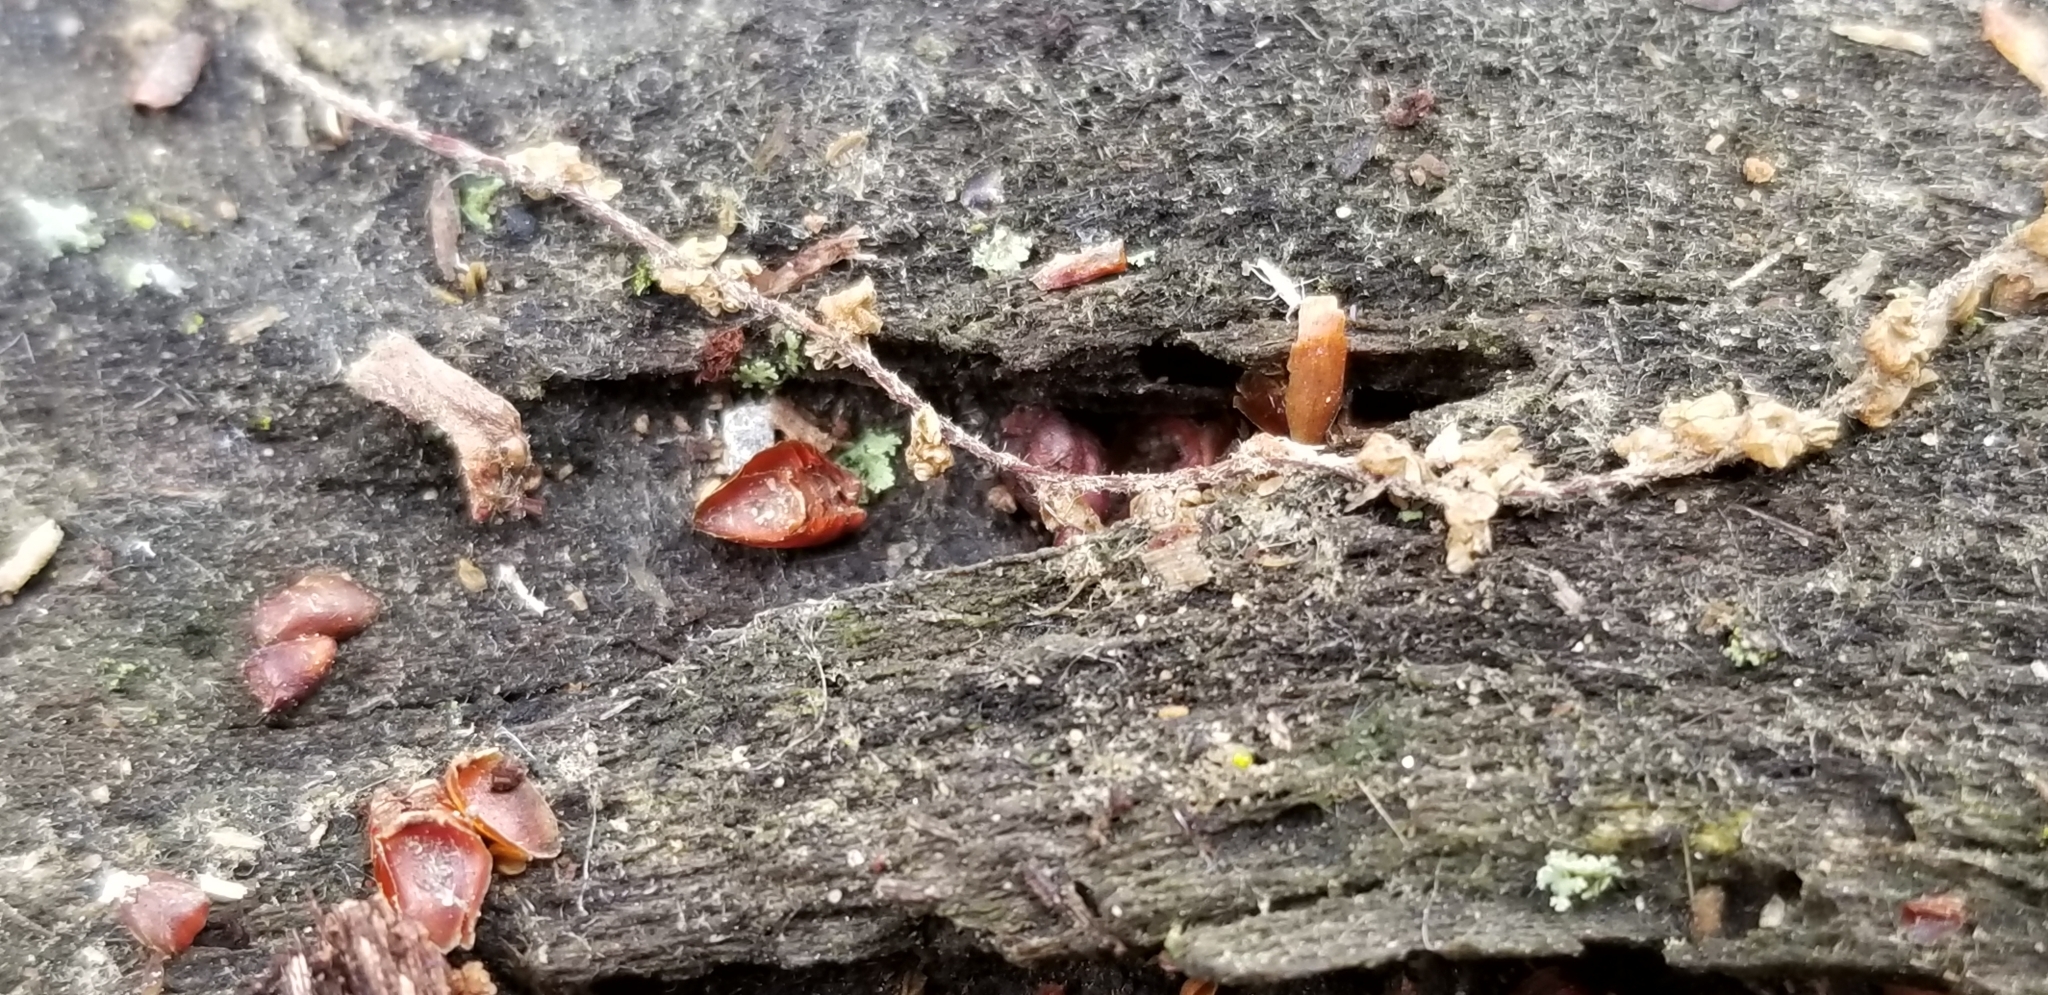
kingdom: Fungi
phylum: Ascomycota
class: Leotiomycetes
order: Helotiales
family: Gelatinodiscaceae
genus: Ascocoryne
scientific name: Ascocoryne sarcoides
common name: Purple jellydisc
